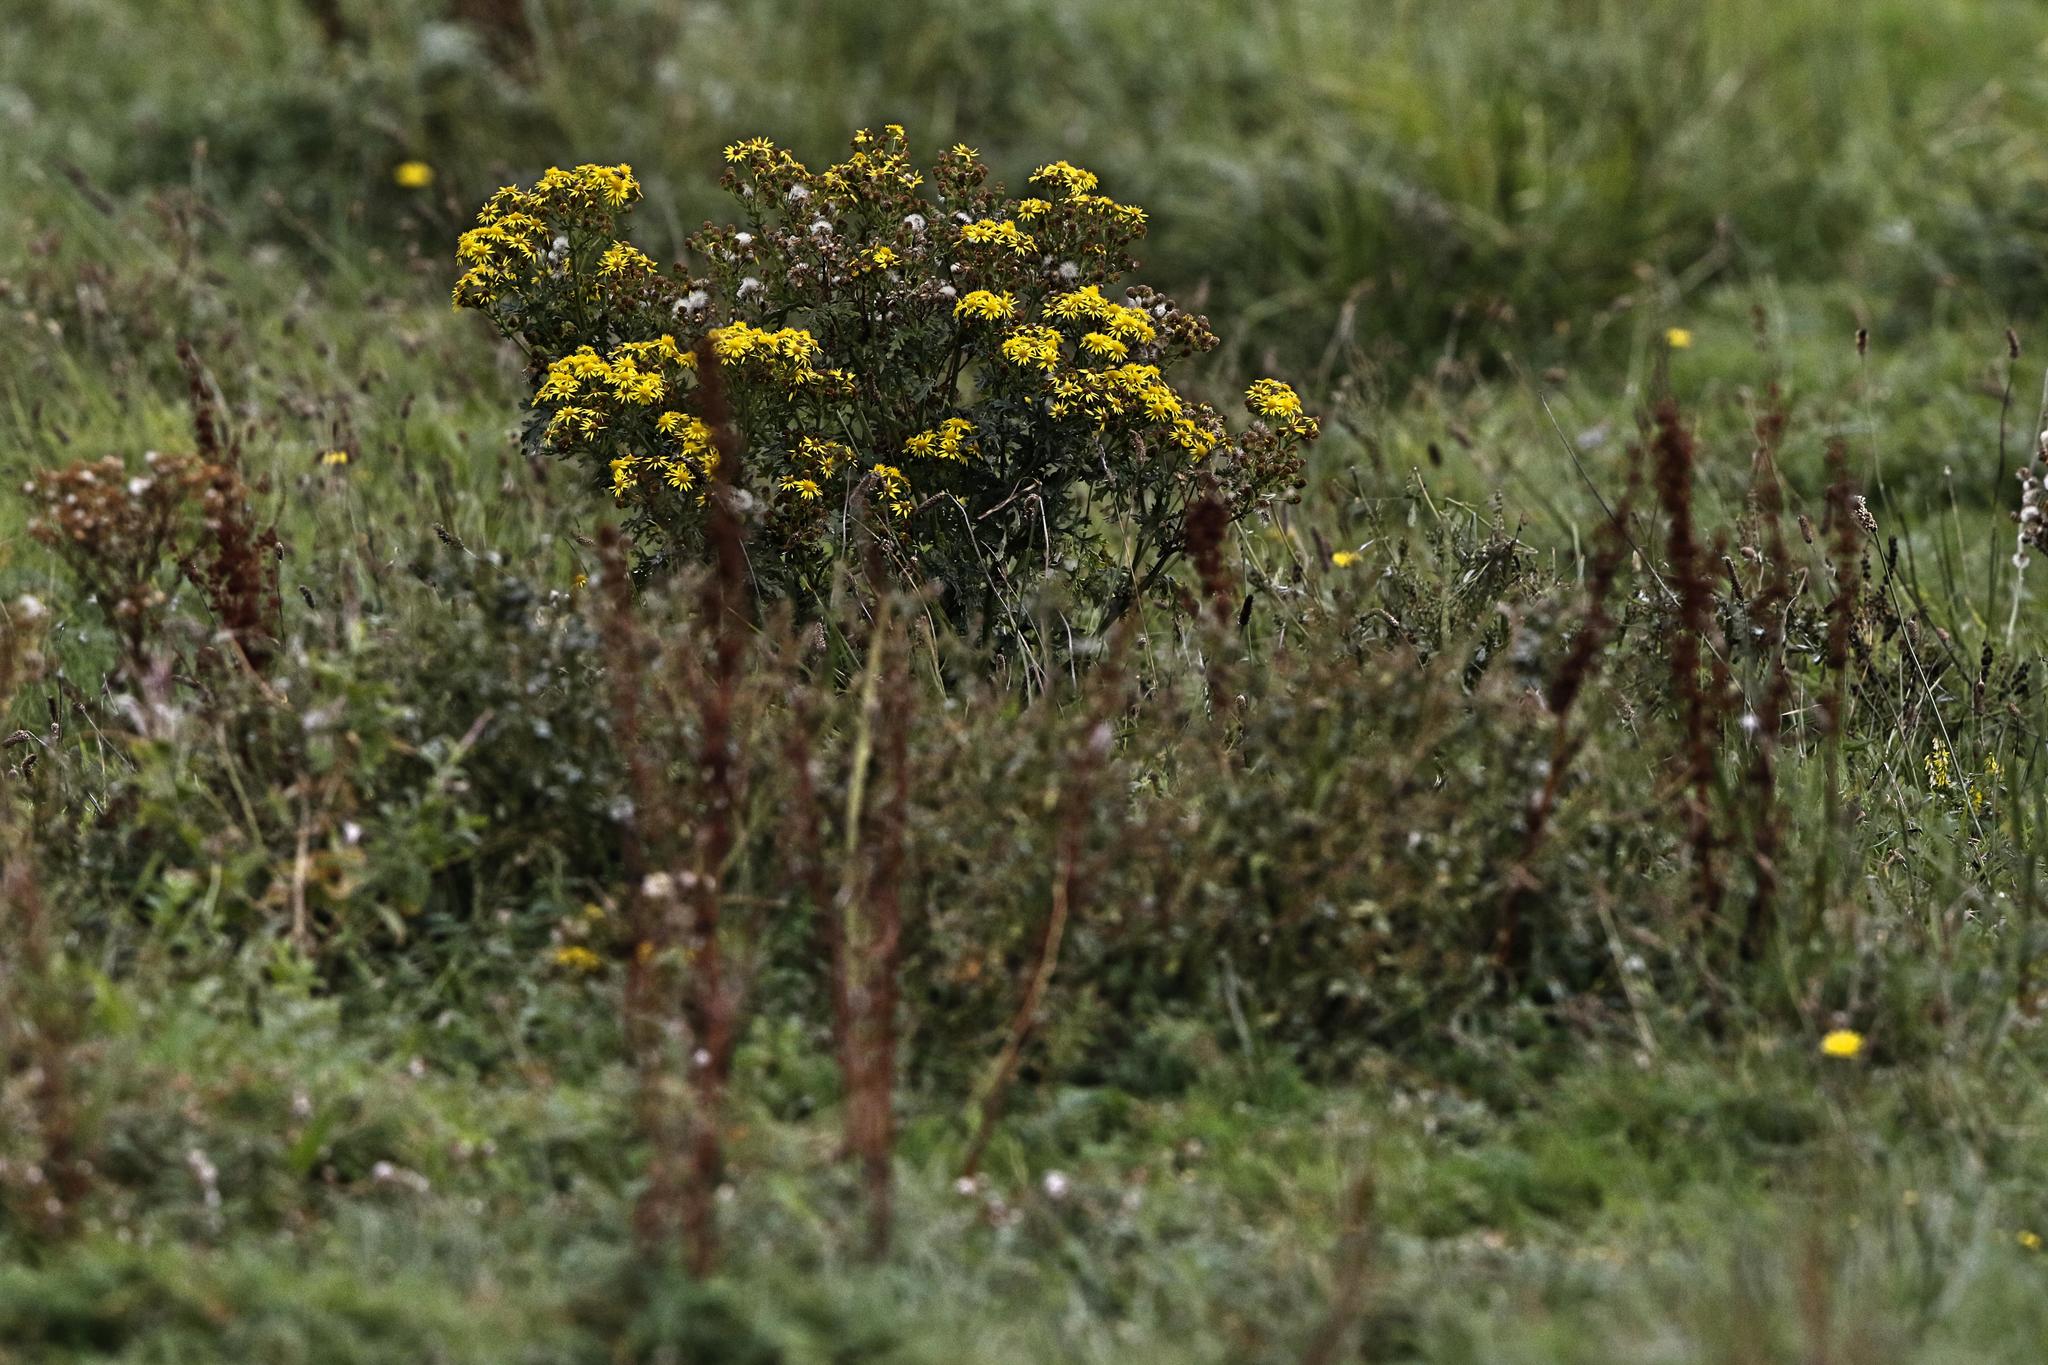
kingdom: Plantae
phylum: Tracheophyta
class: Magnoliopsida
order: Asterales
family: Asteraceae
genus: Jacobaea
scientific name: Jacobaea vulgaris
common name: Stinking willie
